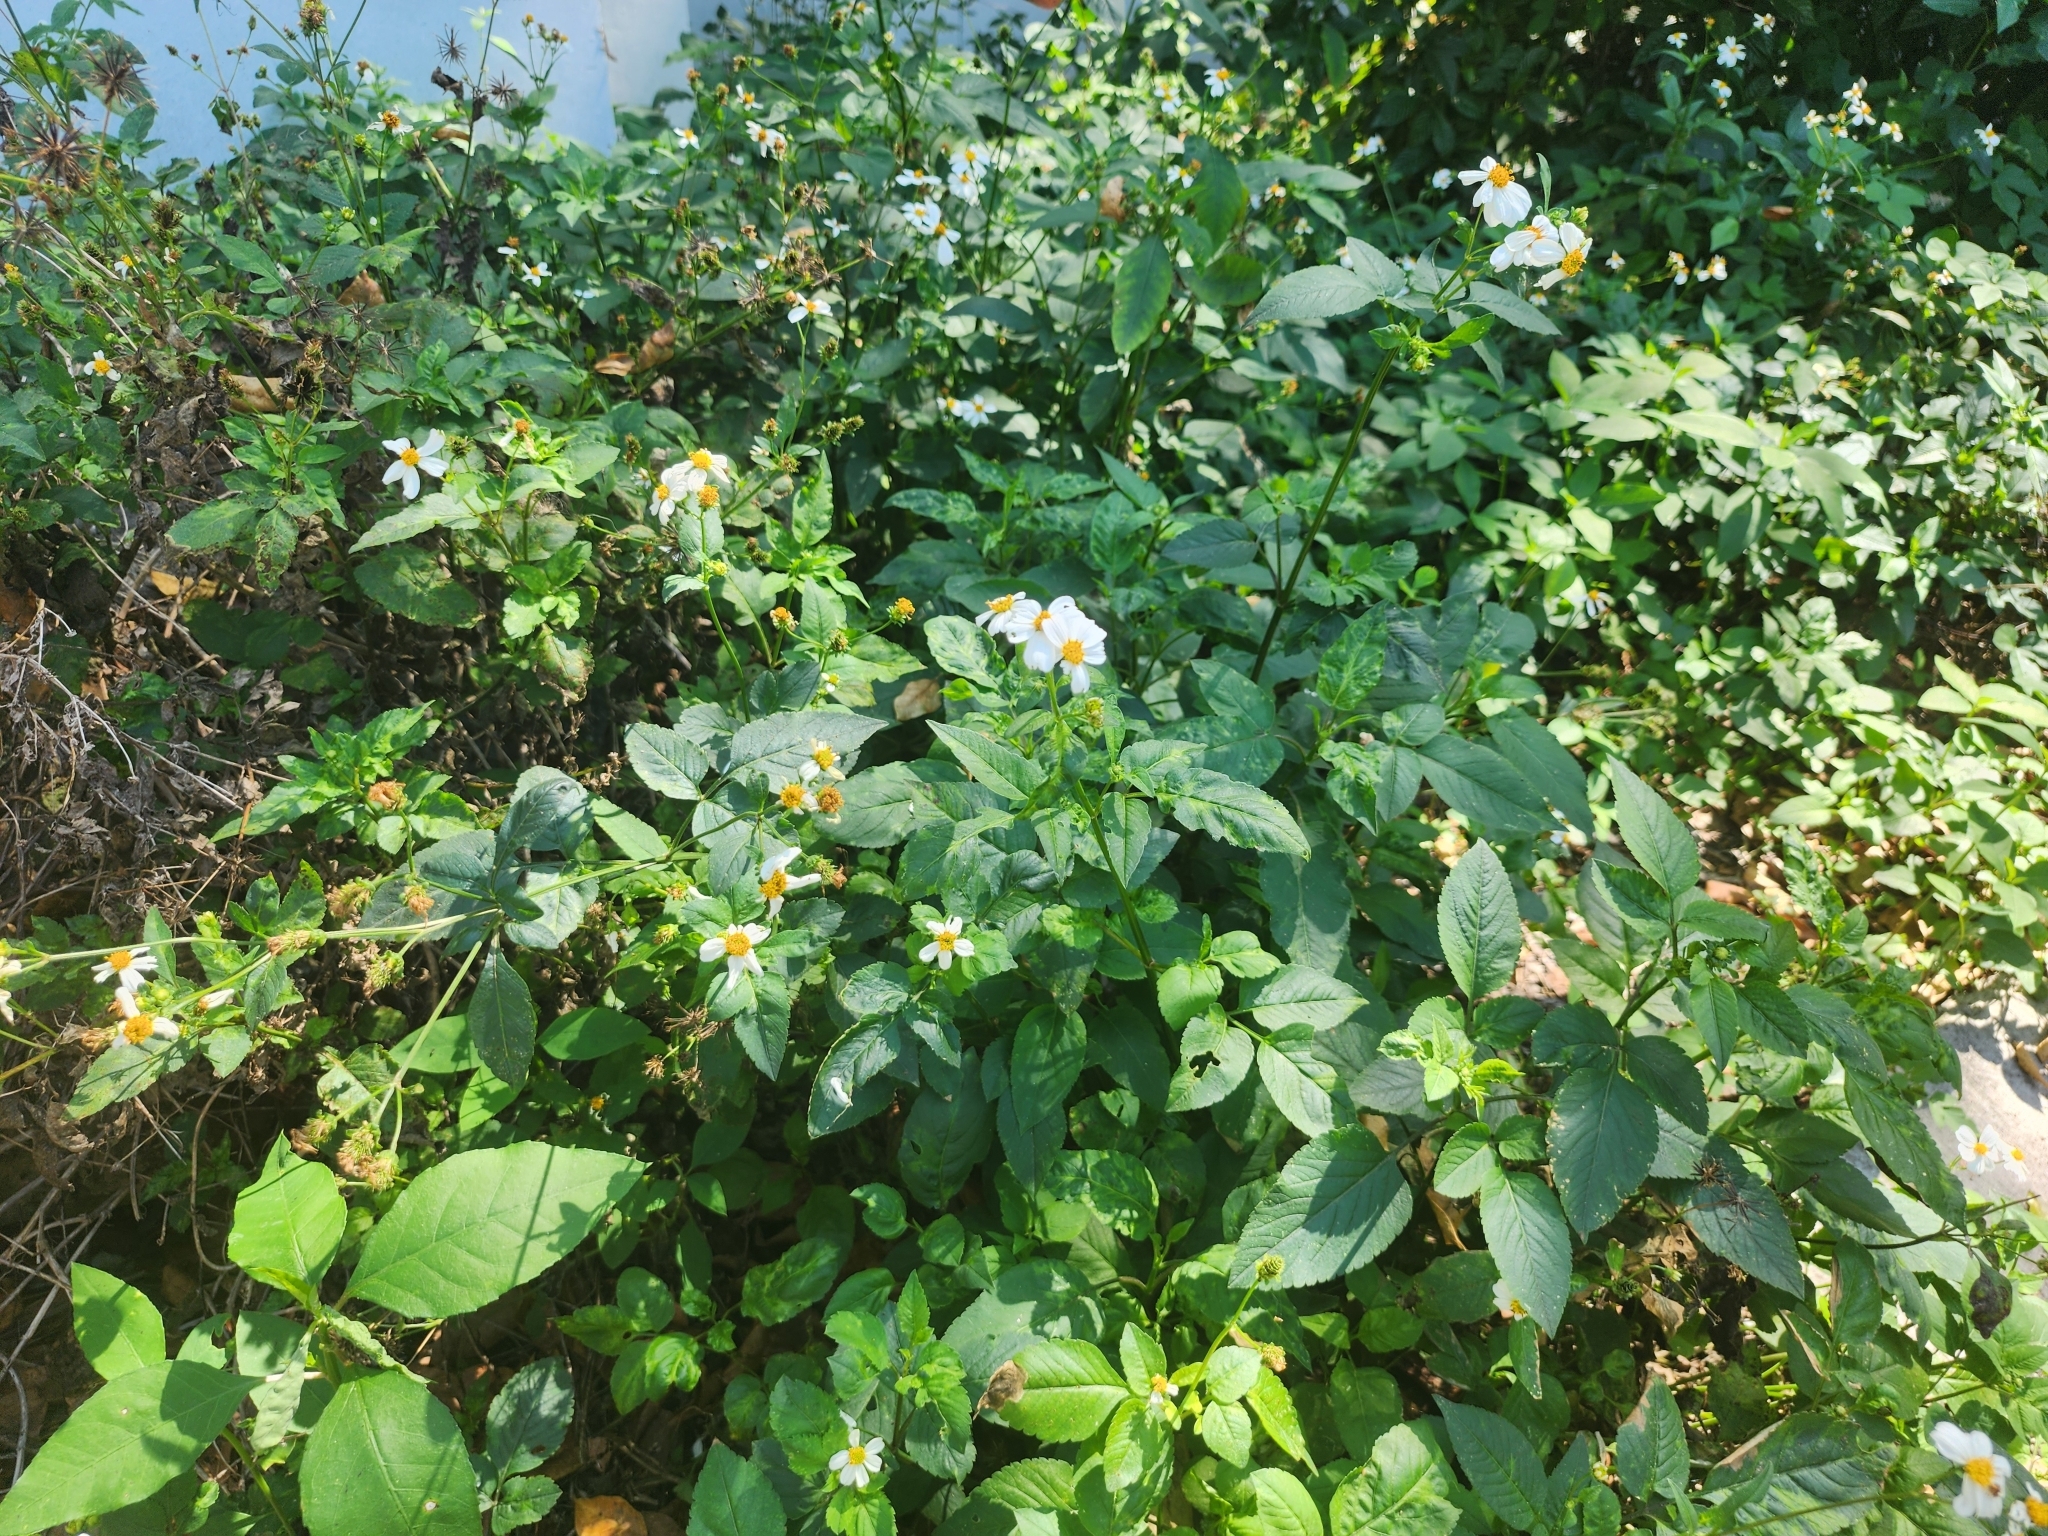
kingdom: Plantae
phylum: Tracheophyta
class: Magnoliopsida
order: Asterales
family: Asteraceae
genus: Bidens
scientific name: Bidens alba
